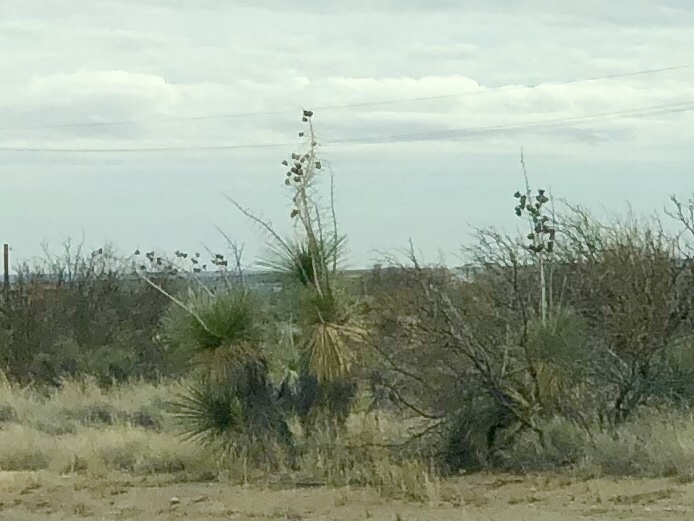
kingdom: Plantae
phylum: Tracheophyta
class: Liliopsida
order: Asparagales
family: Asparagaceae
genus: Yucca
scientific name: Yucca elata
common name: Palmella
